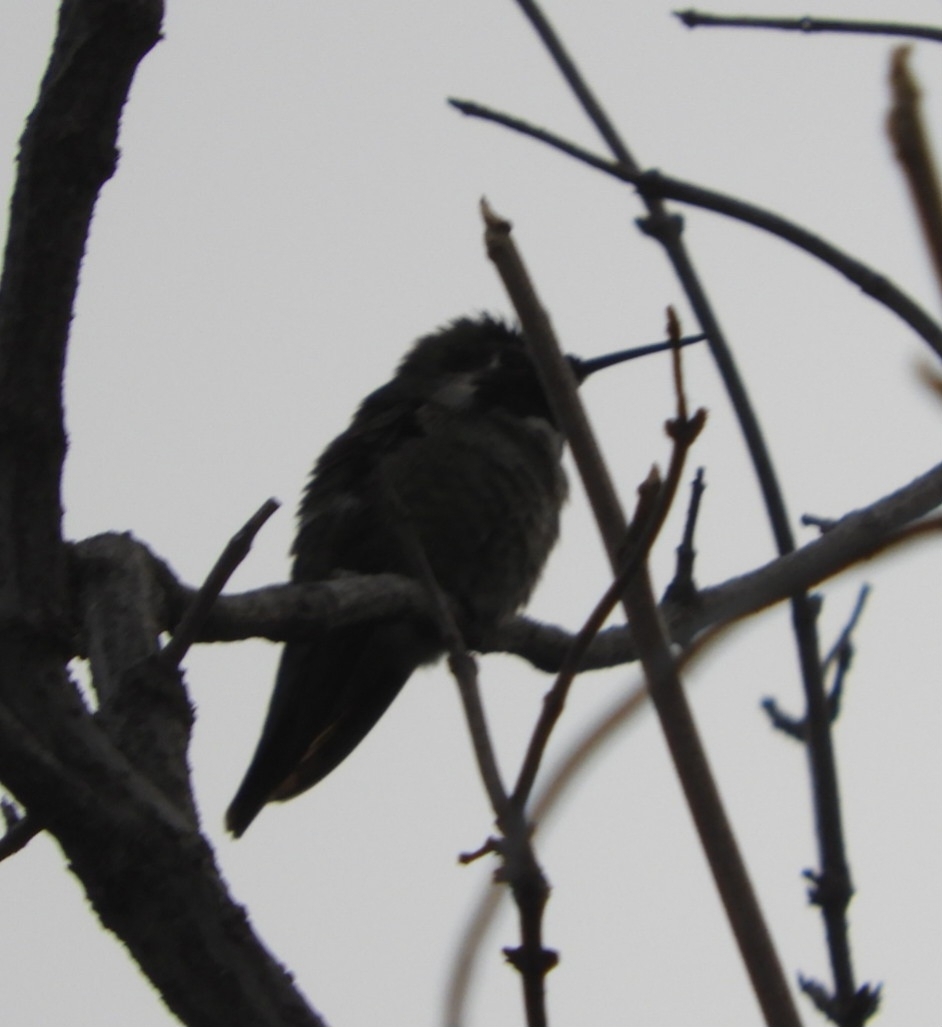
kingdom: Animalia
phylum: Chordata
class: Aves
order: Apodiformes
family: Trochilidae
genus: Calypte
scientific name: Calypte anna
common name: Anna's hummingbird
